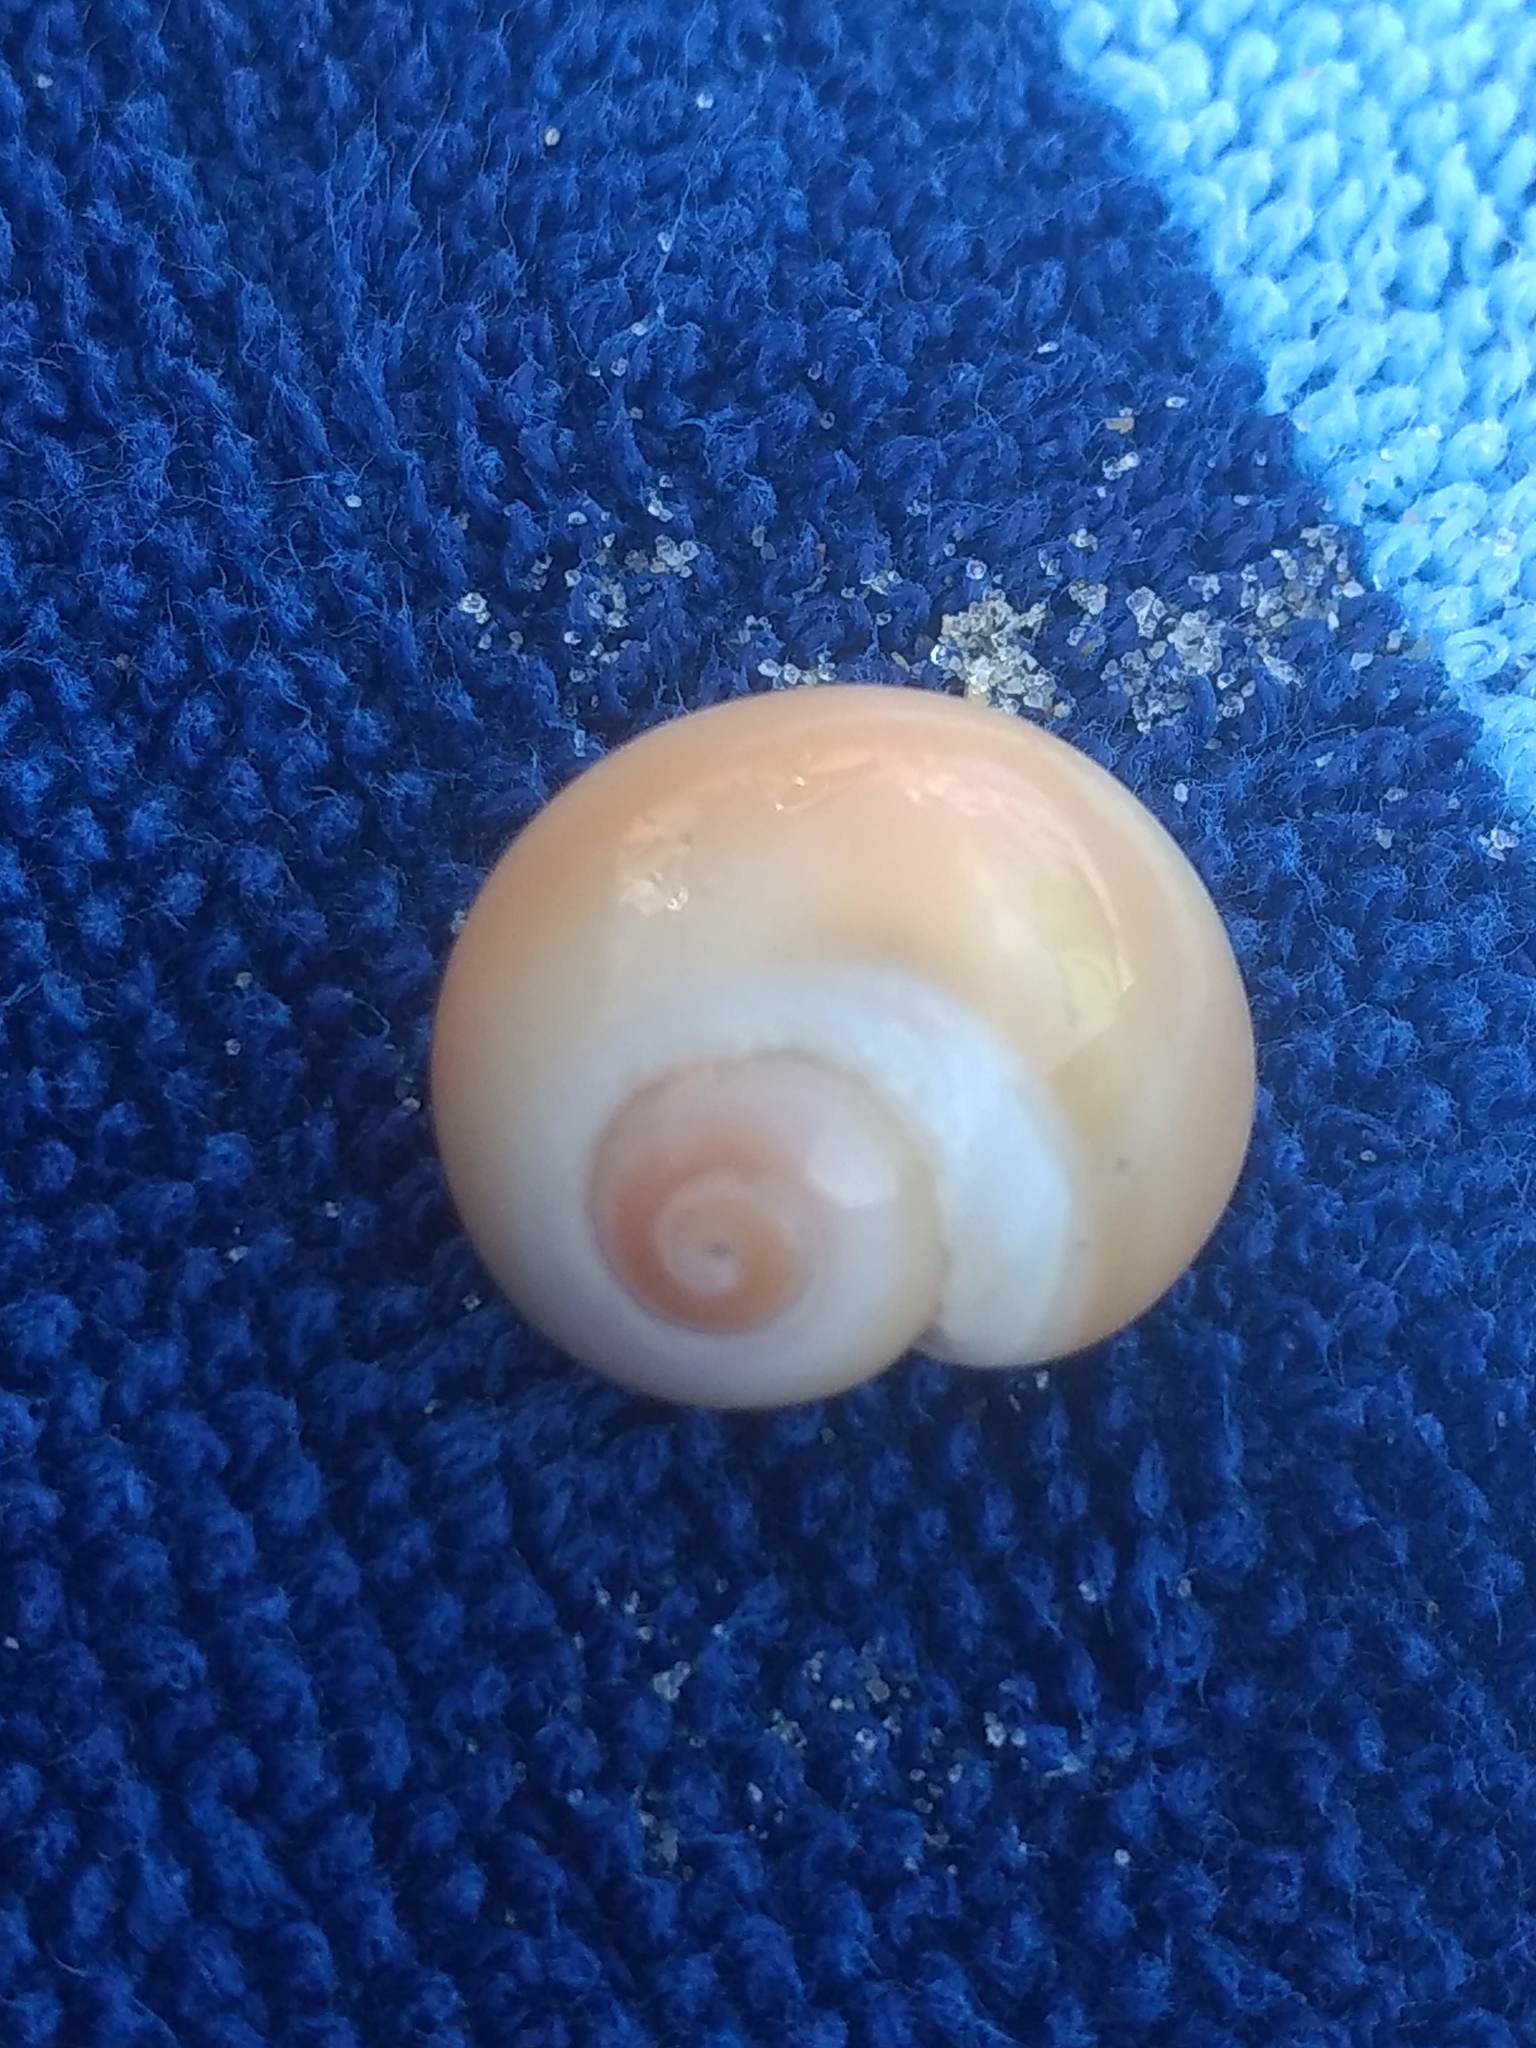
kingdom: Animalia
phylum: Mollusca
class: Gastropoda
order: Littorinimorpha
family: Naticidae
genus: Glossaulax
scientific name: Glossaulax reclusiana
